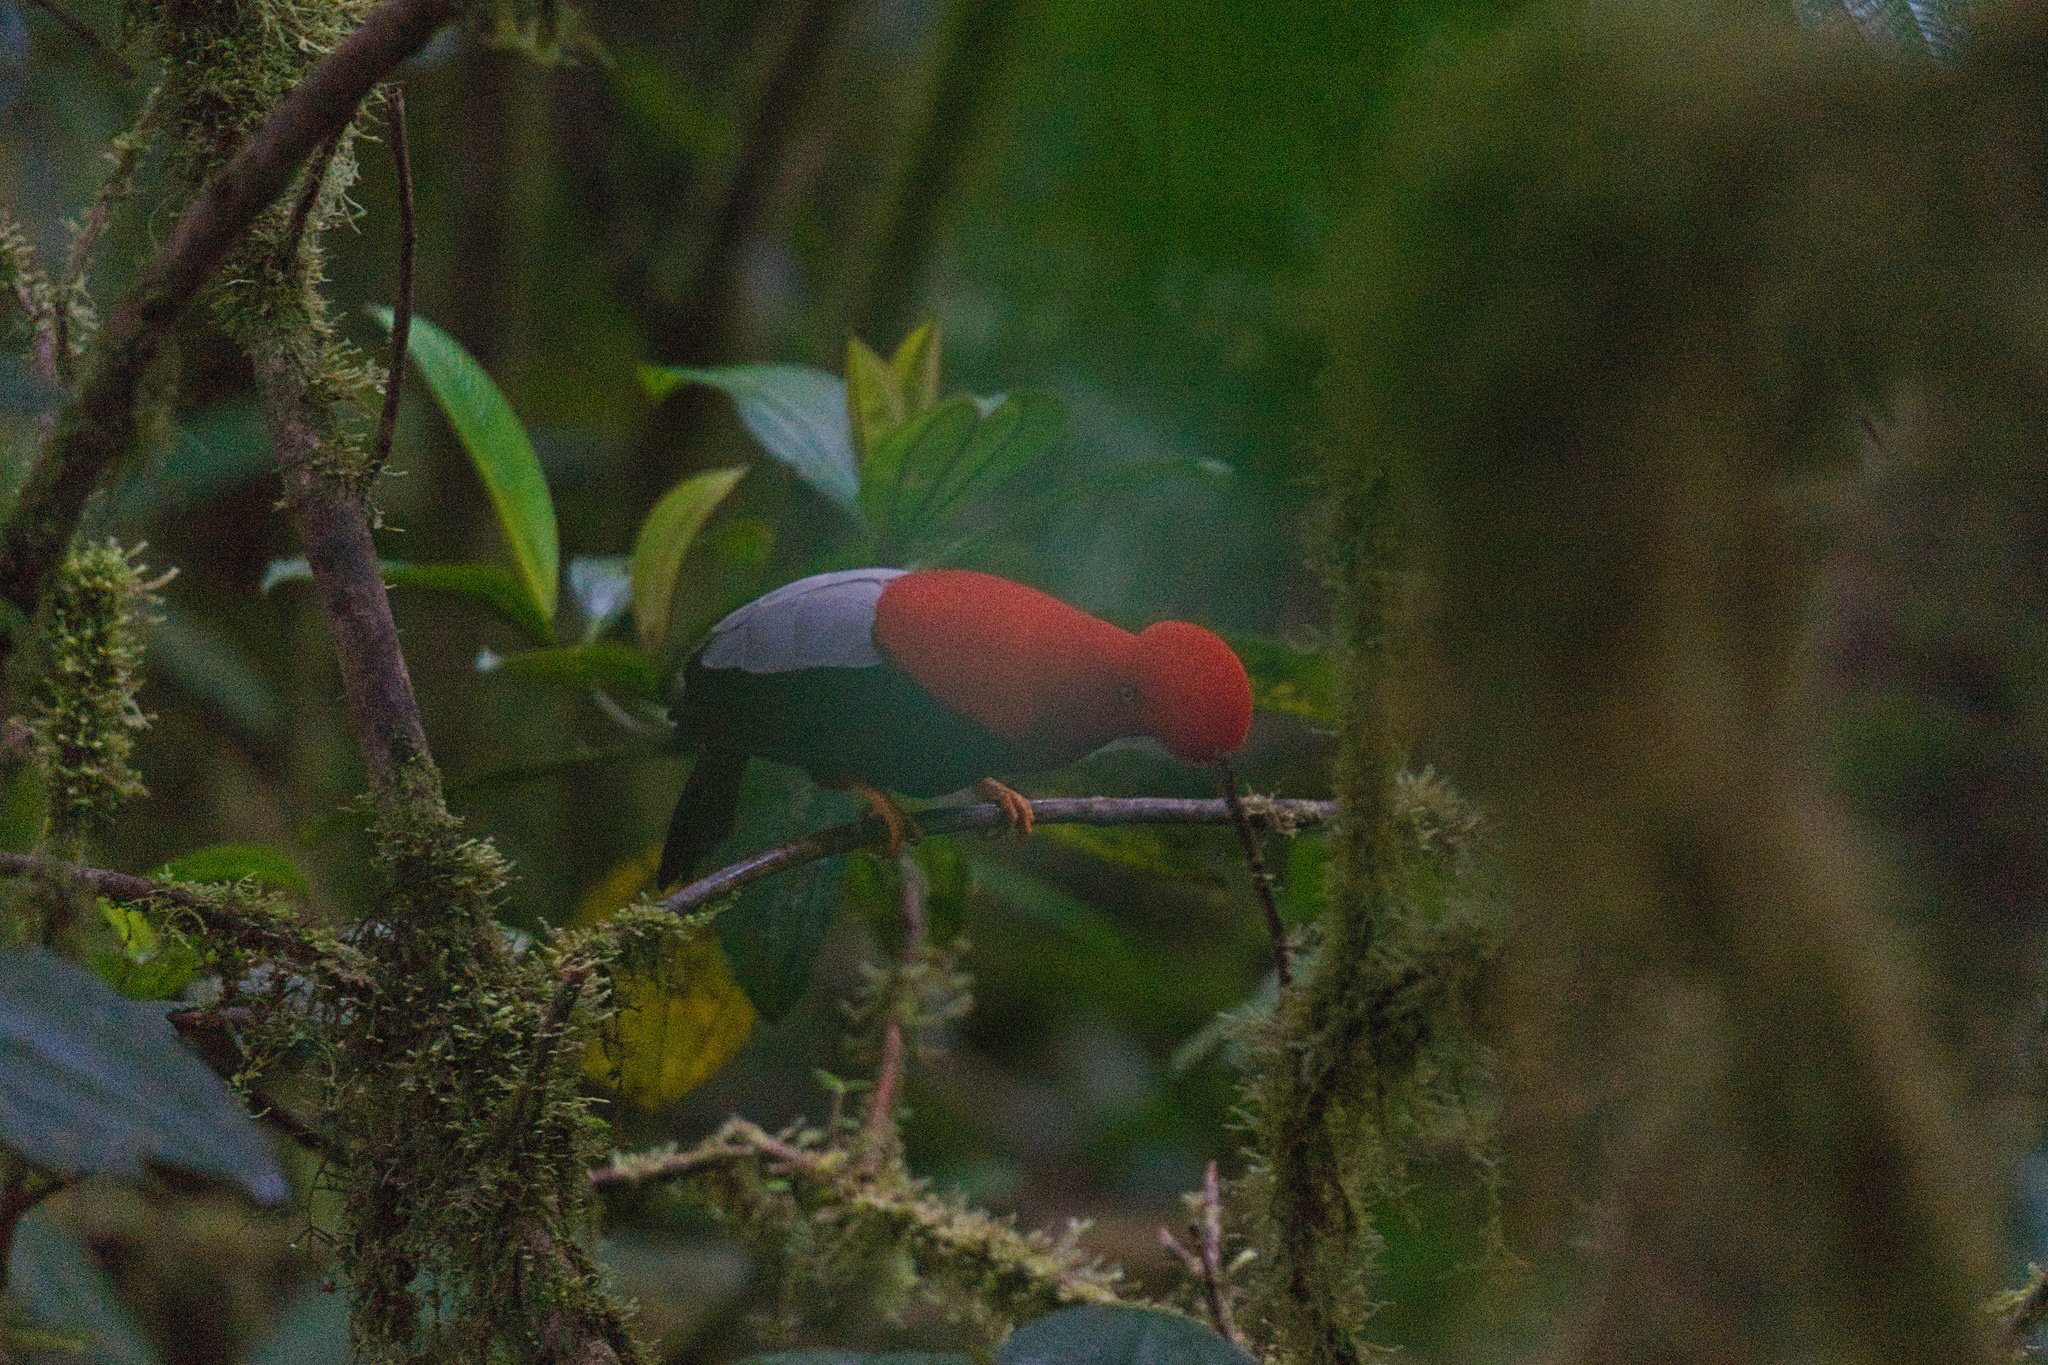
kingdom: Animalia
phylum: Chordata
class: Aves
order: Passeriformes
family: Cotingidae
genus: Rupicola
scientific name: Rupicola peruvianus
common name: Andean cock-of-the-rock
